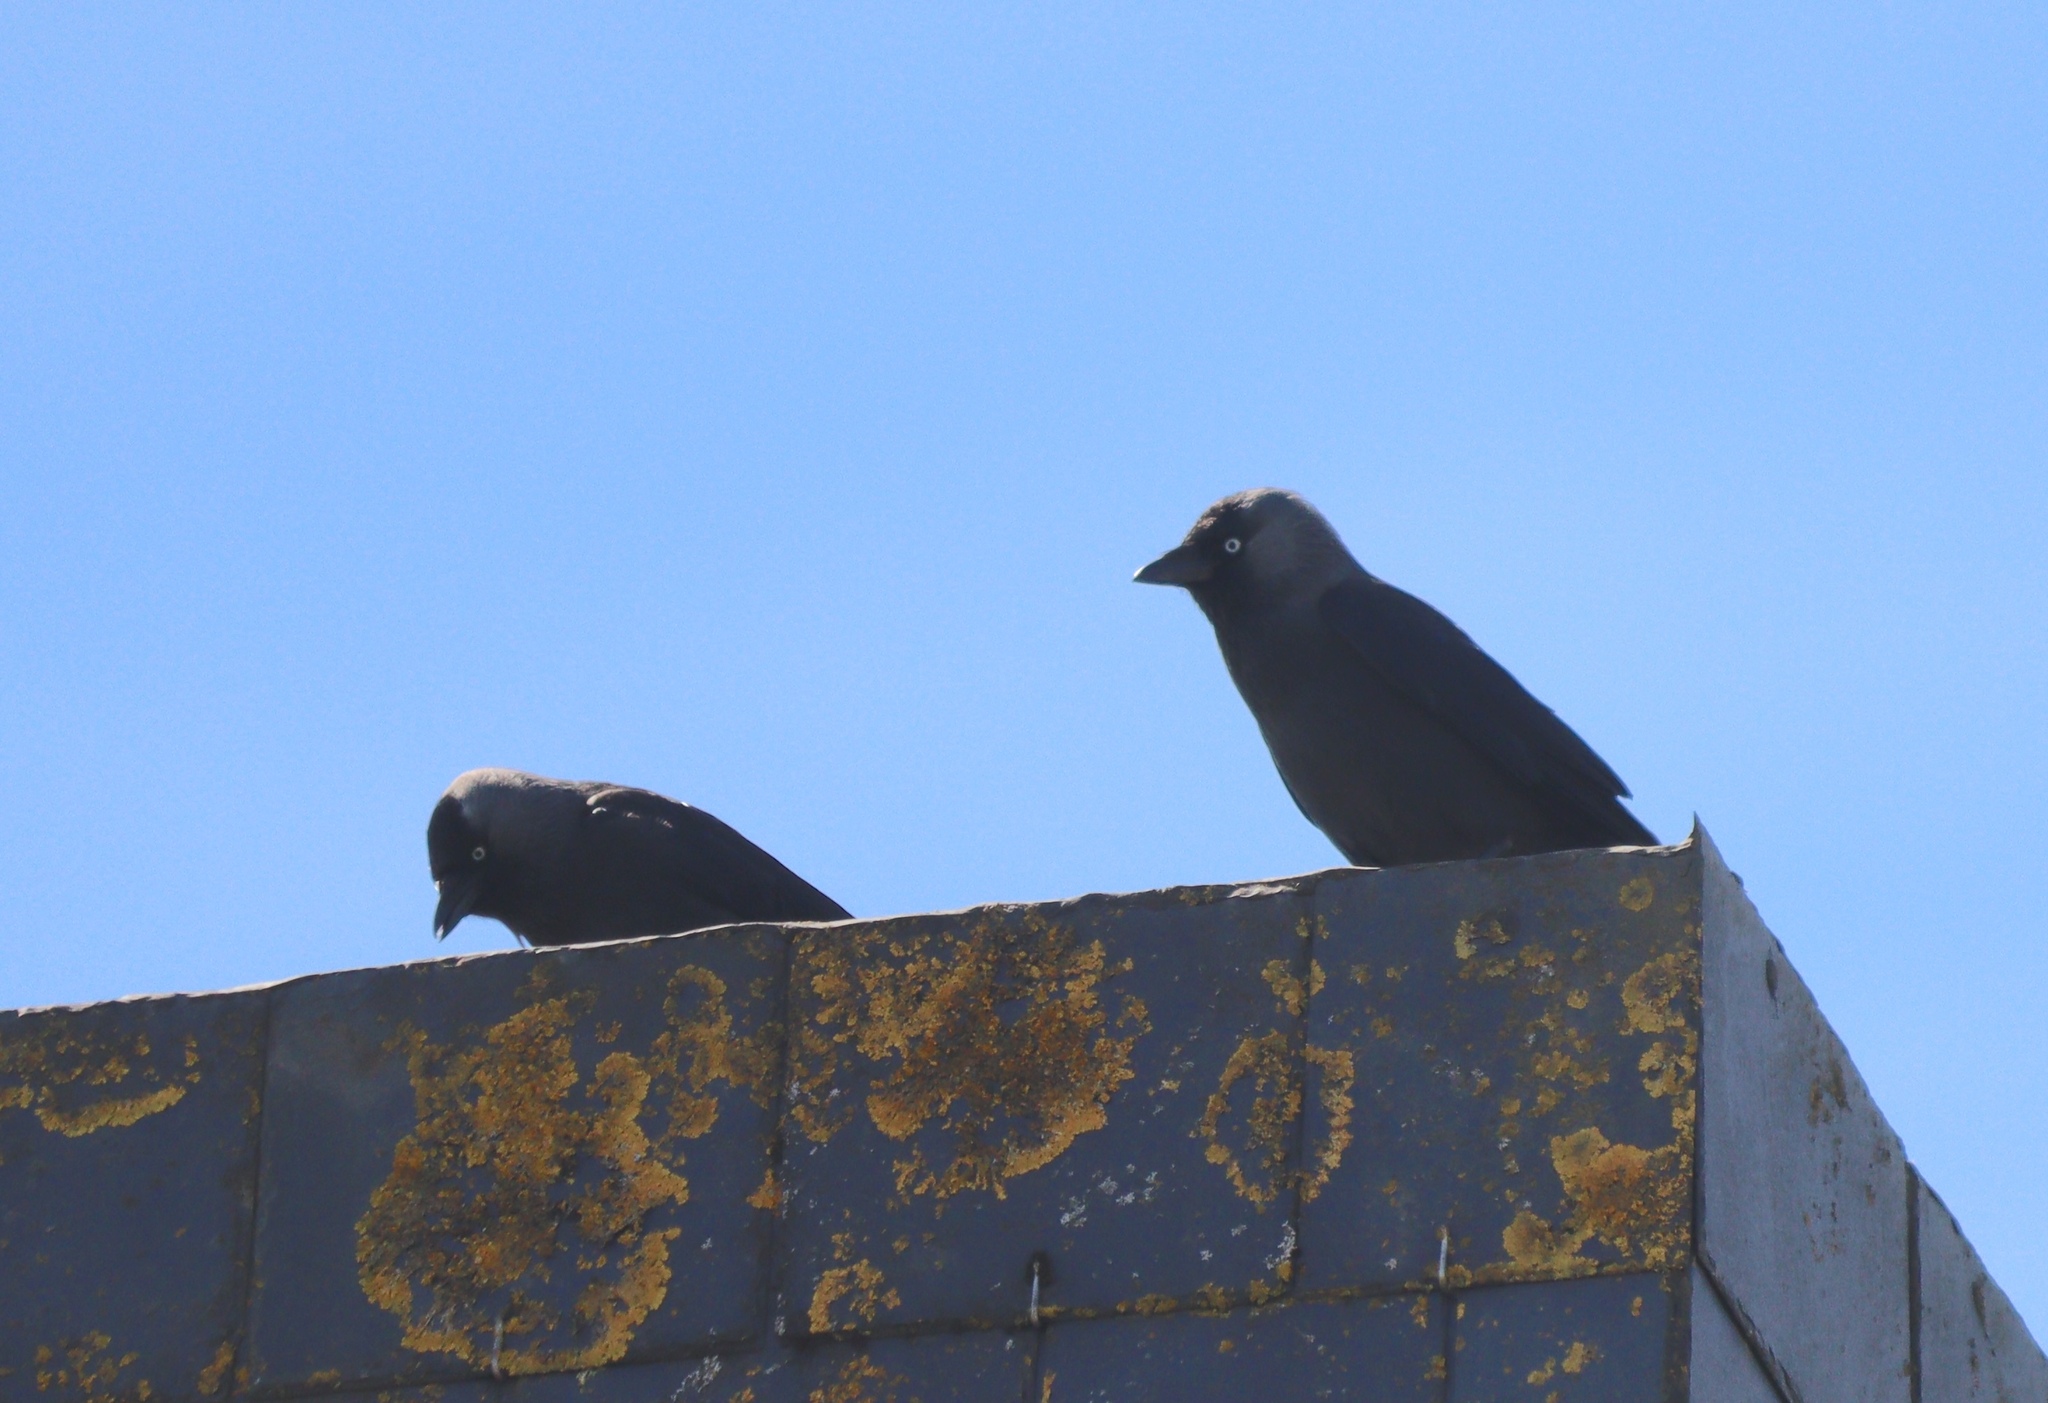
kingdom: Animalia
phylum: Chordata
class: Aves
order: Passeriformes
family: Corvidae
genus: Coloeus
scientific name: Coloeus monedula
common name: Western jackdaw
